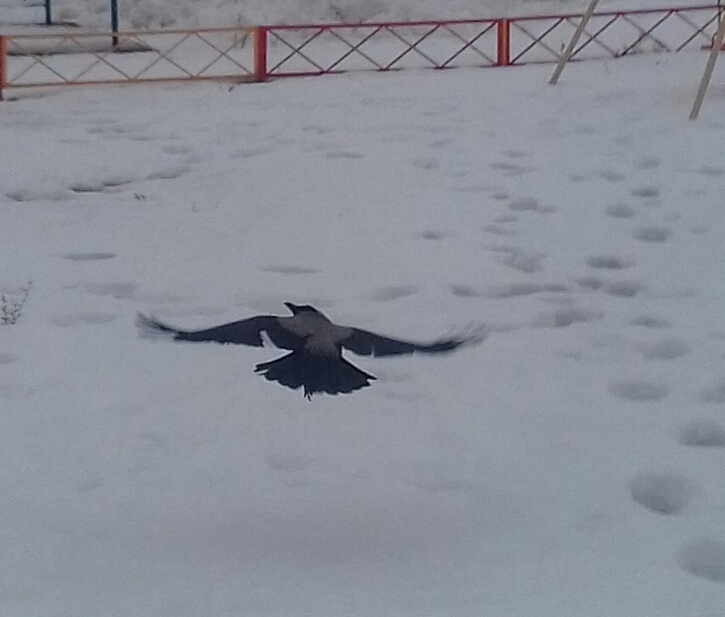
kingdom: Animalia
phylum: Chordata
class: Aves
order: Passeriformes
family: Corvidae
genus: Corvus
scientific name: Corvus cornix
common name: Hooded crow
